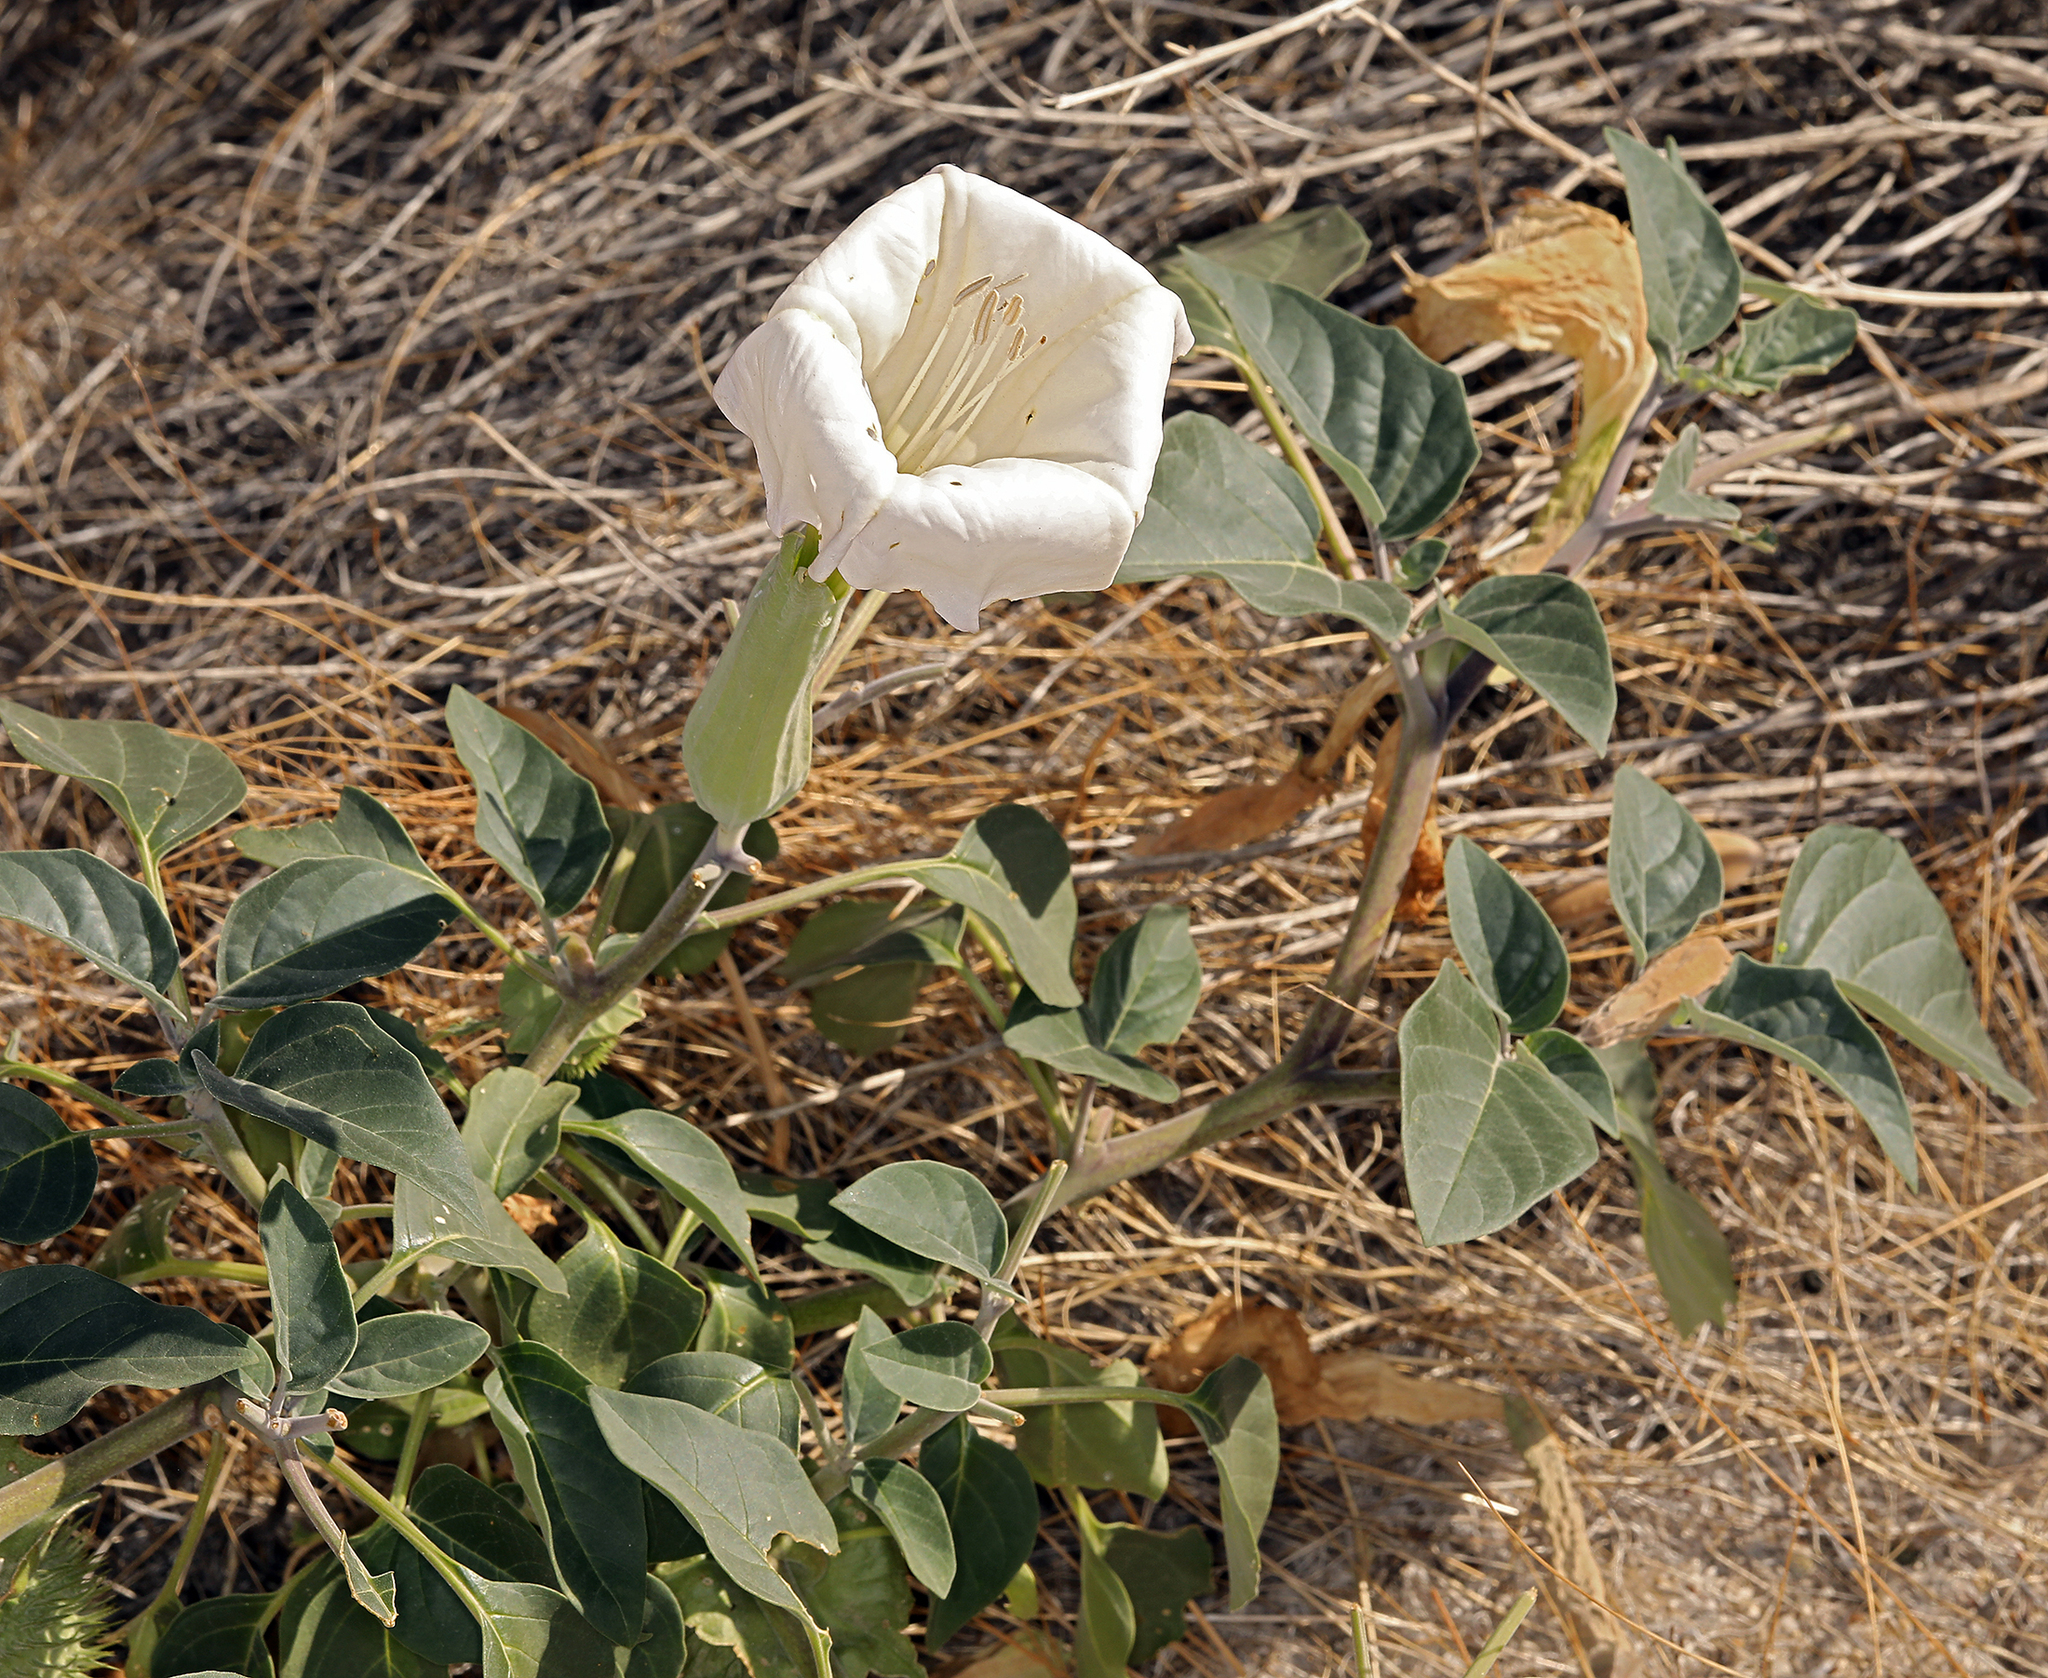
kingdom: Plantae
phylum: Tracheophyta
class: Magnoliopsida
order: Solanales
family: Solanaceae
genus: Datura
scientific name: Datura wrightii
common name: Sacred thorn-apple
